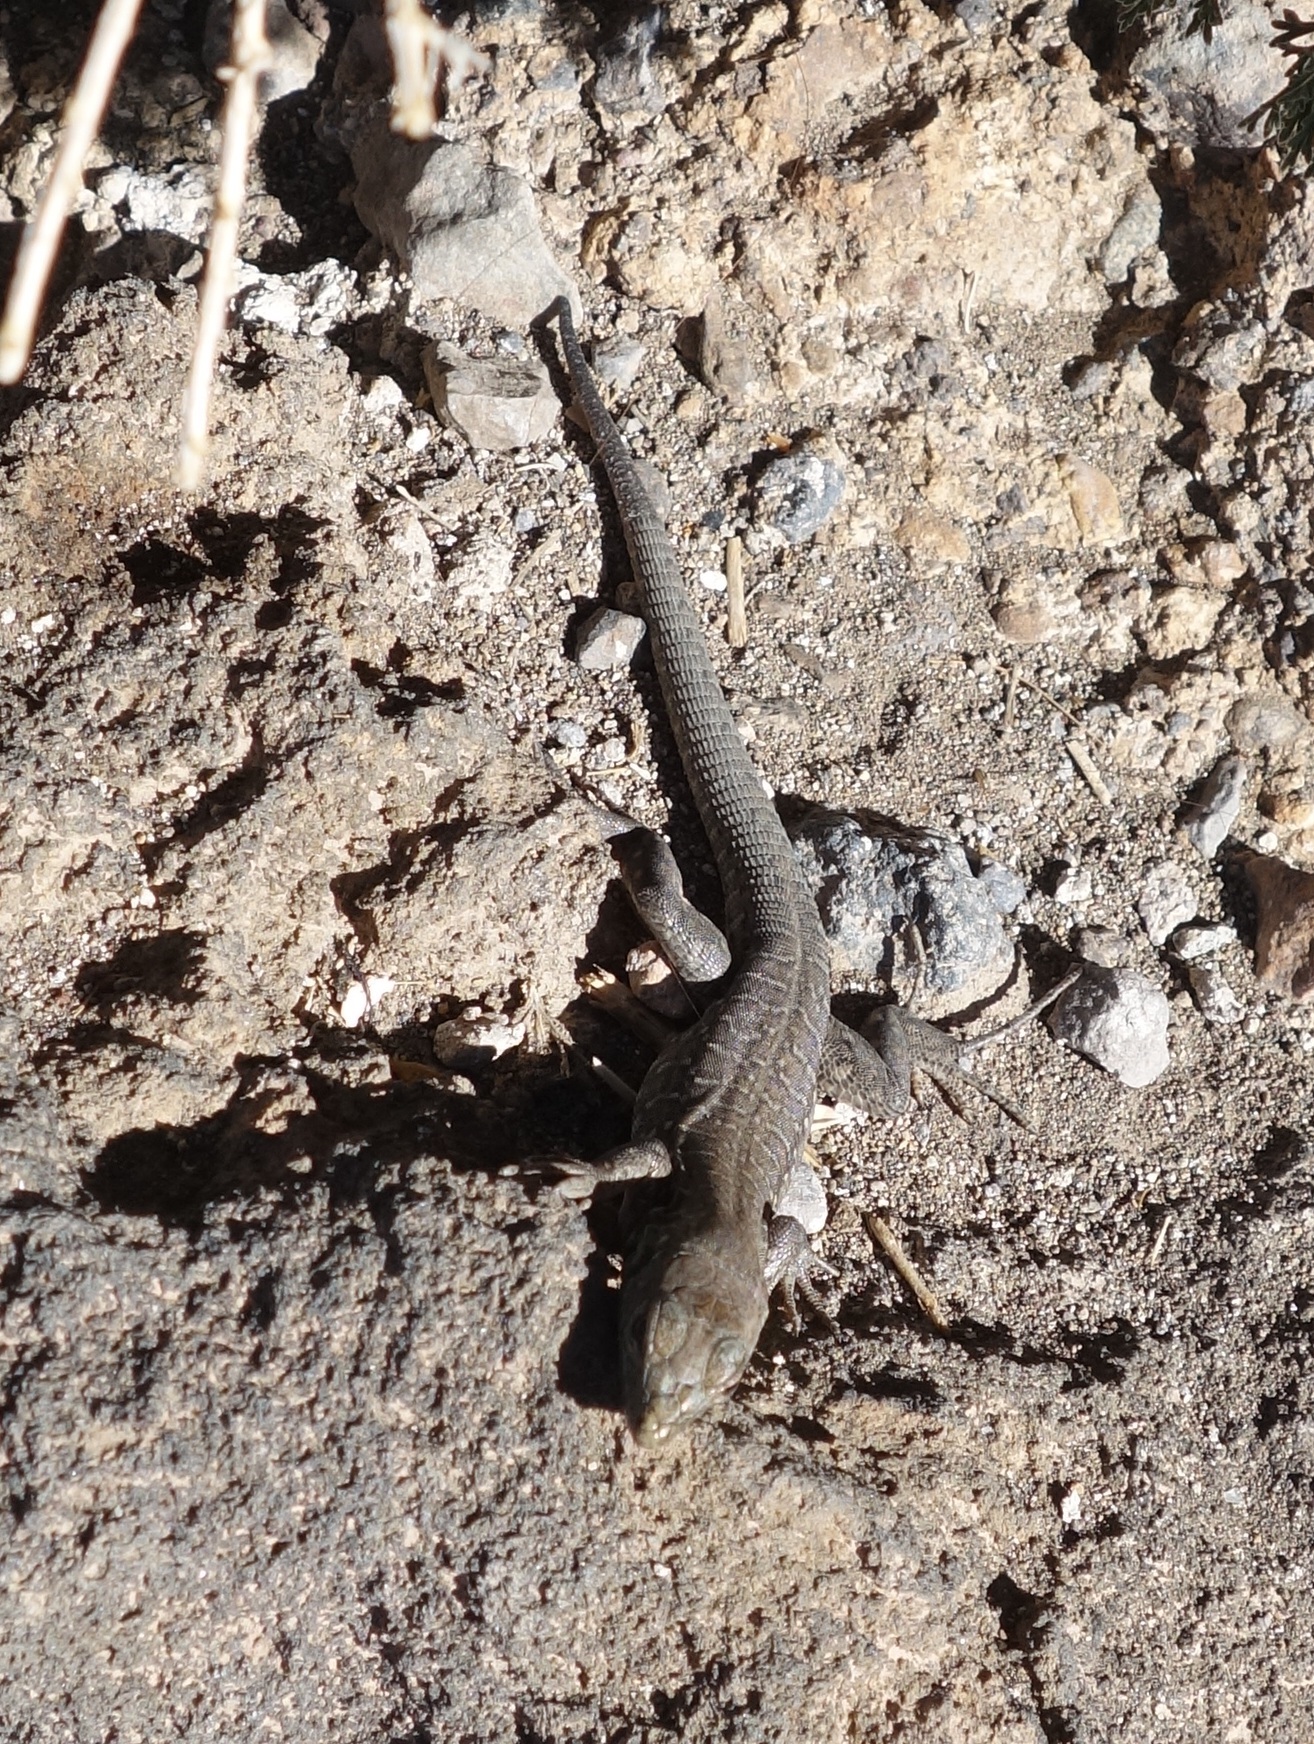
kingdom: Animalia
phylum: Chordata
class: Squamata
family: Lacertidae
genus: Gallotia
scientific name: Gallotia galloti
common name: Gallot's lizard
